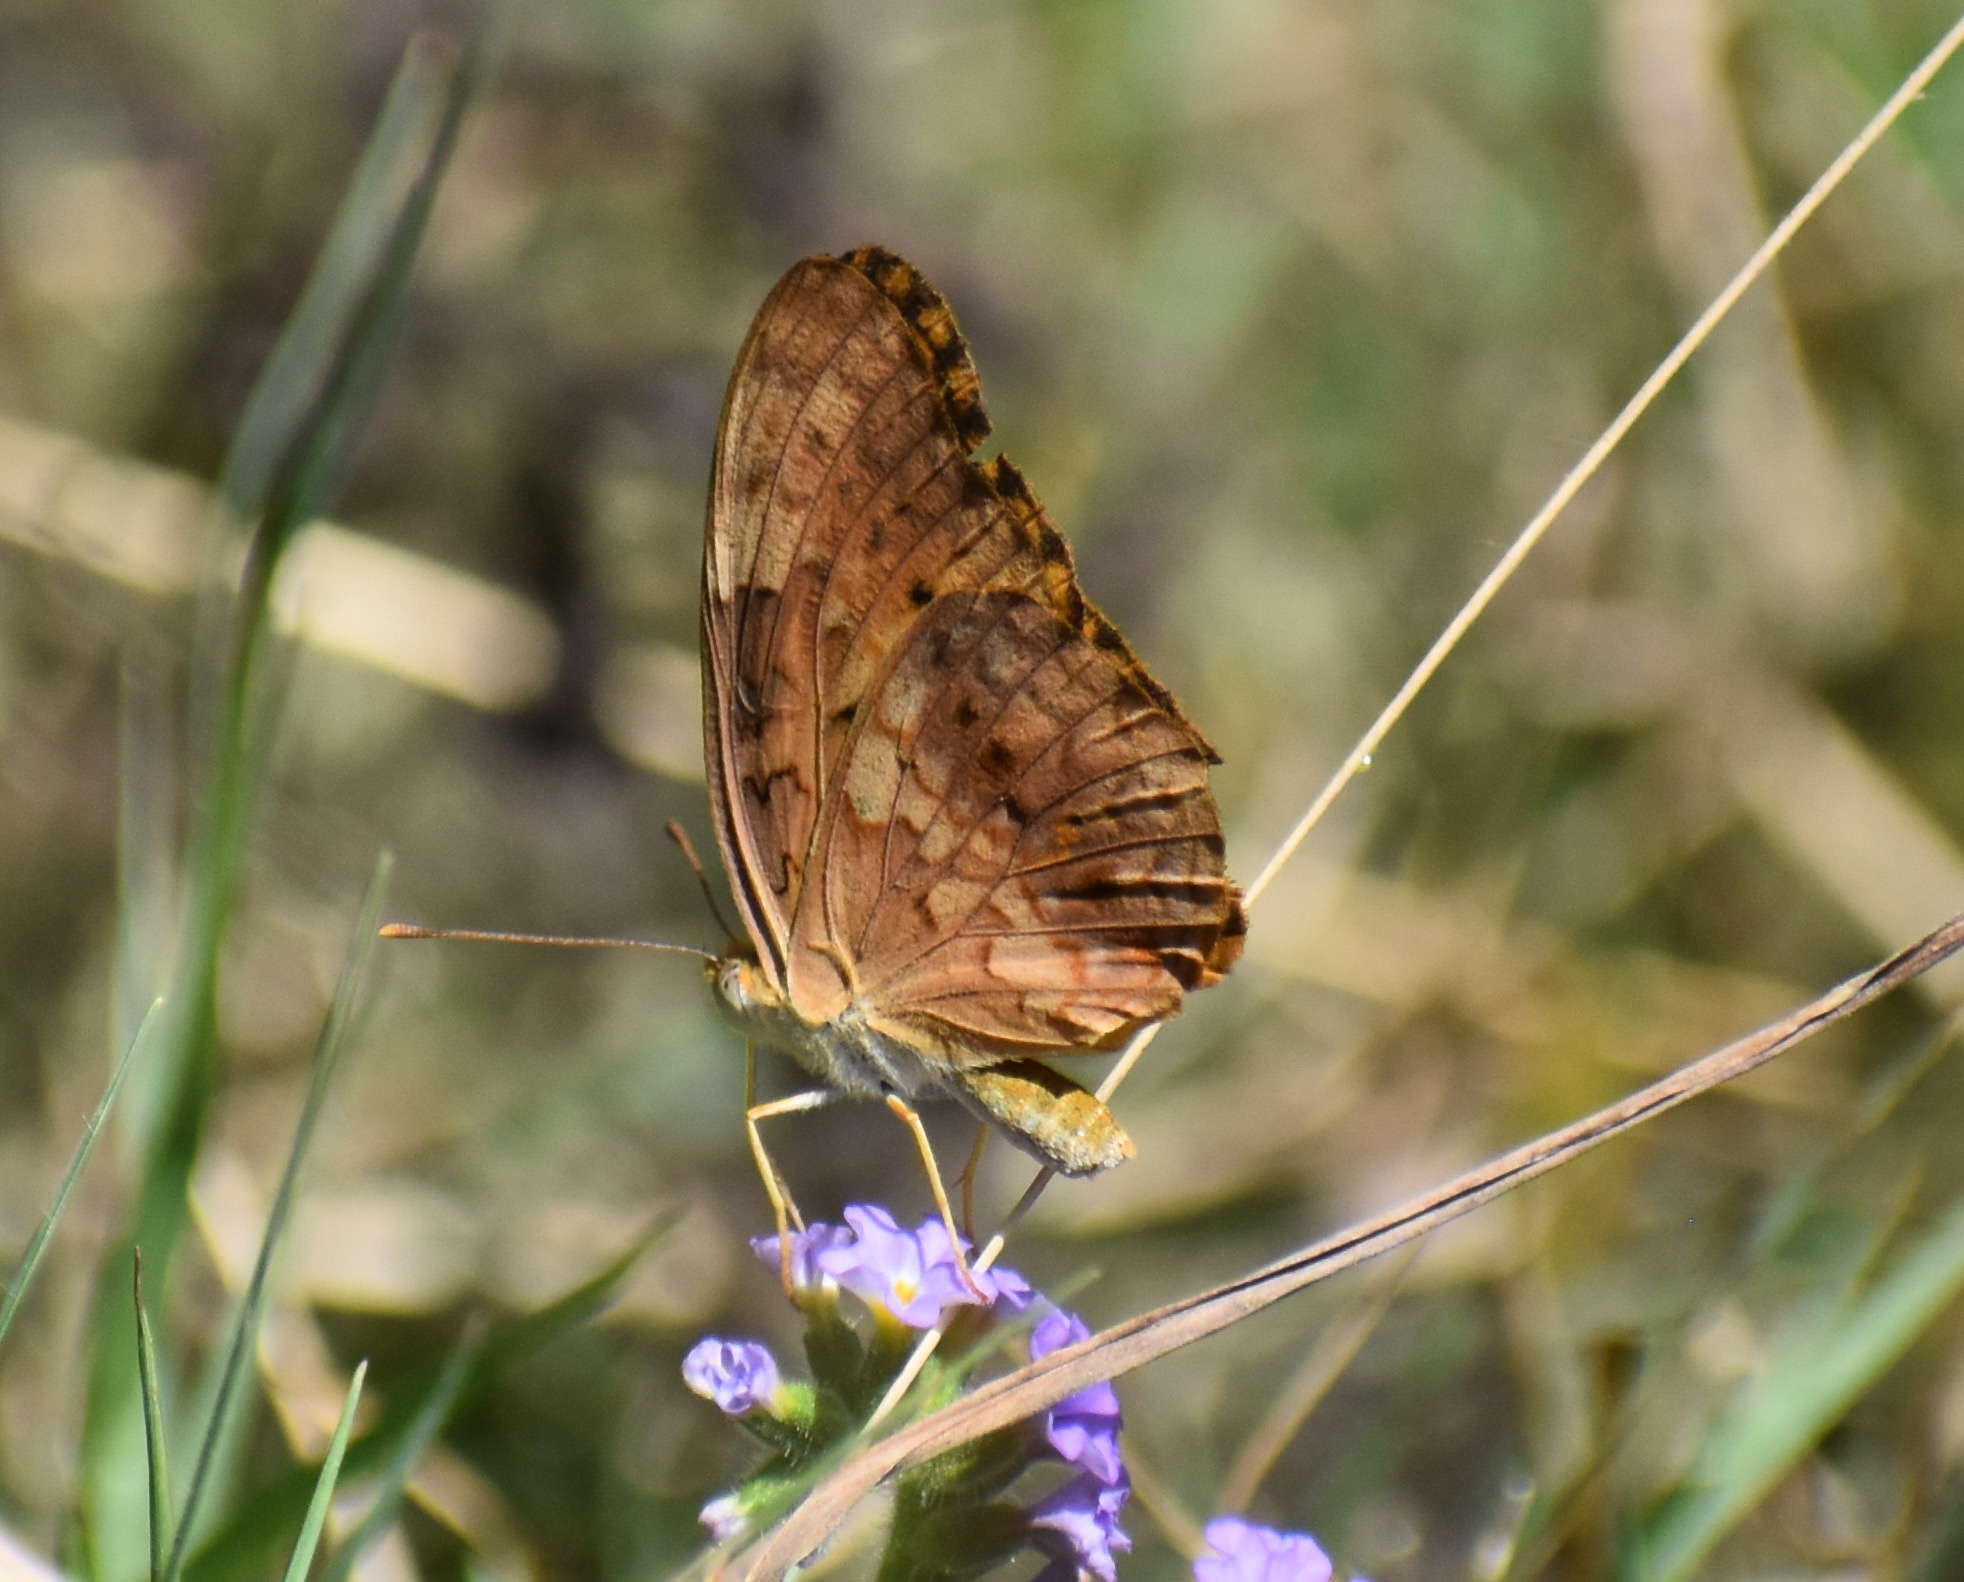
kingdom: Animalia
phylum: Arthropoda
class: Insecta
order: Lepidoptera
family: Nymphalidae
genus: Phalanta
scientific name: Phalanta phalantha
